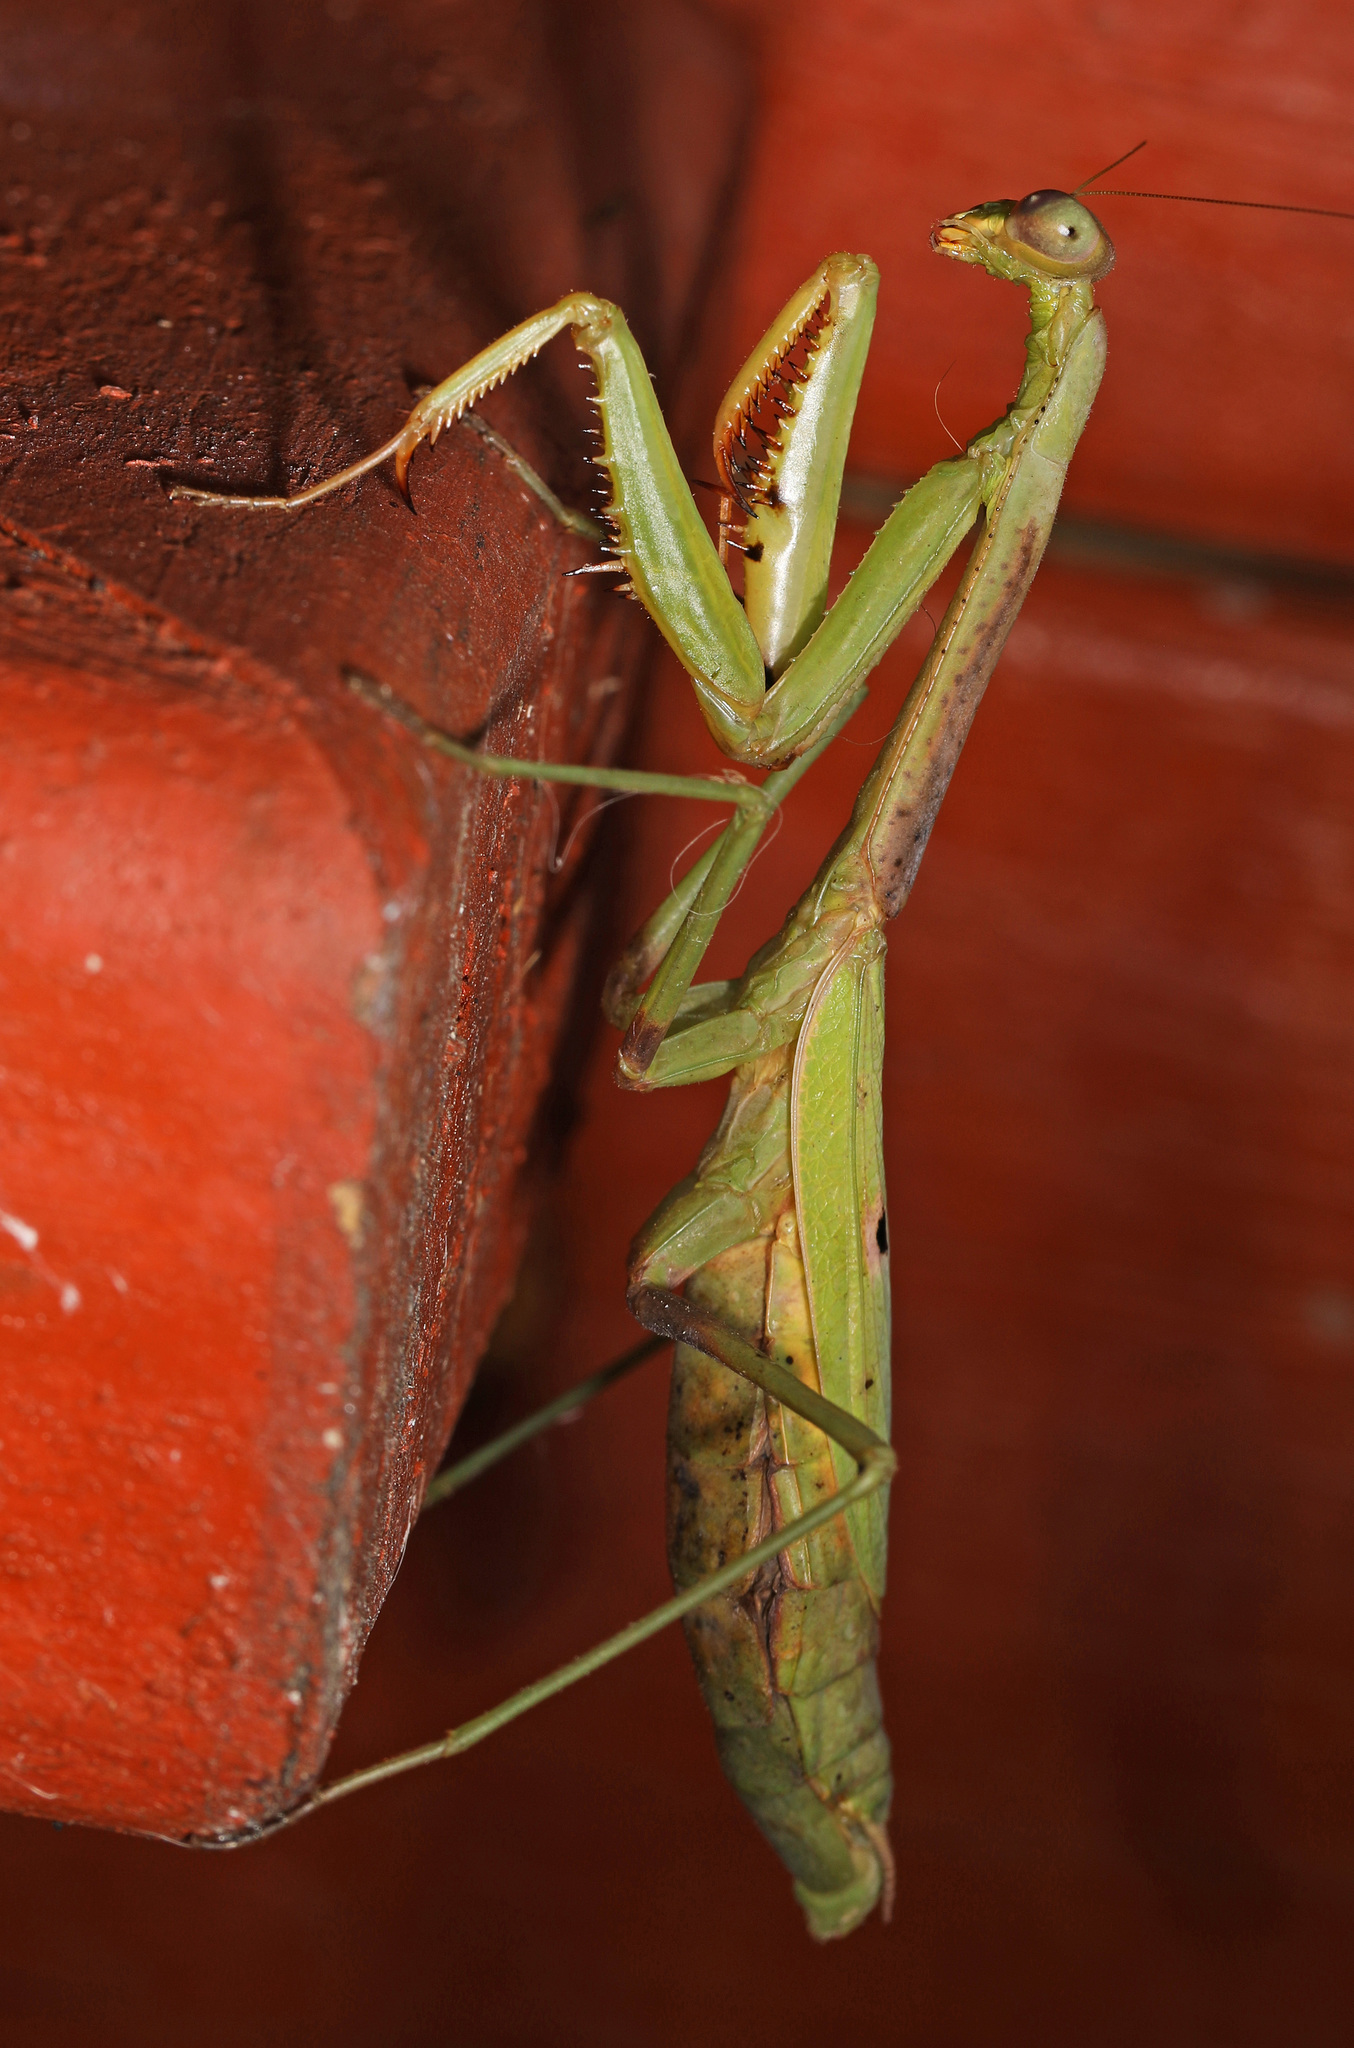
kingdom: Animalia
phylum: Arthropoda
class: Insecta
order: Mantodea
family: Mantidae
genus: Stagmomantis
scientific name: Stagmomantis carolina
